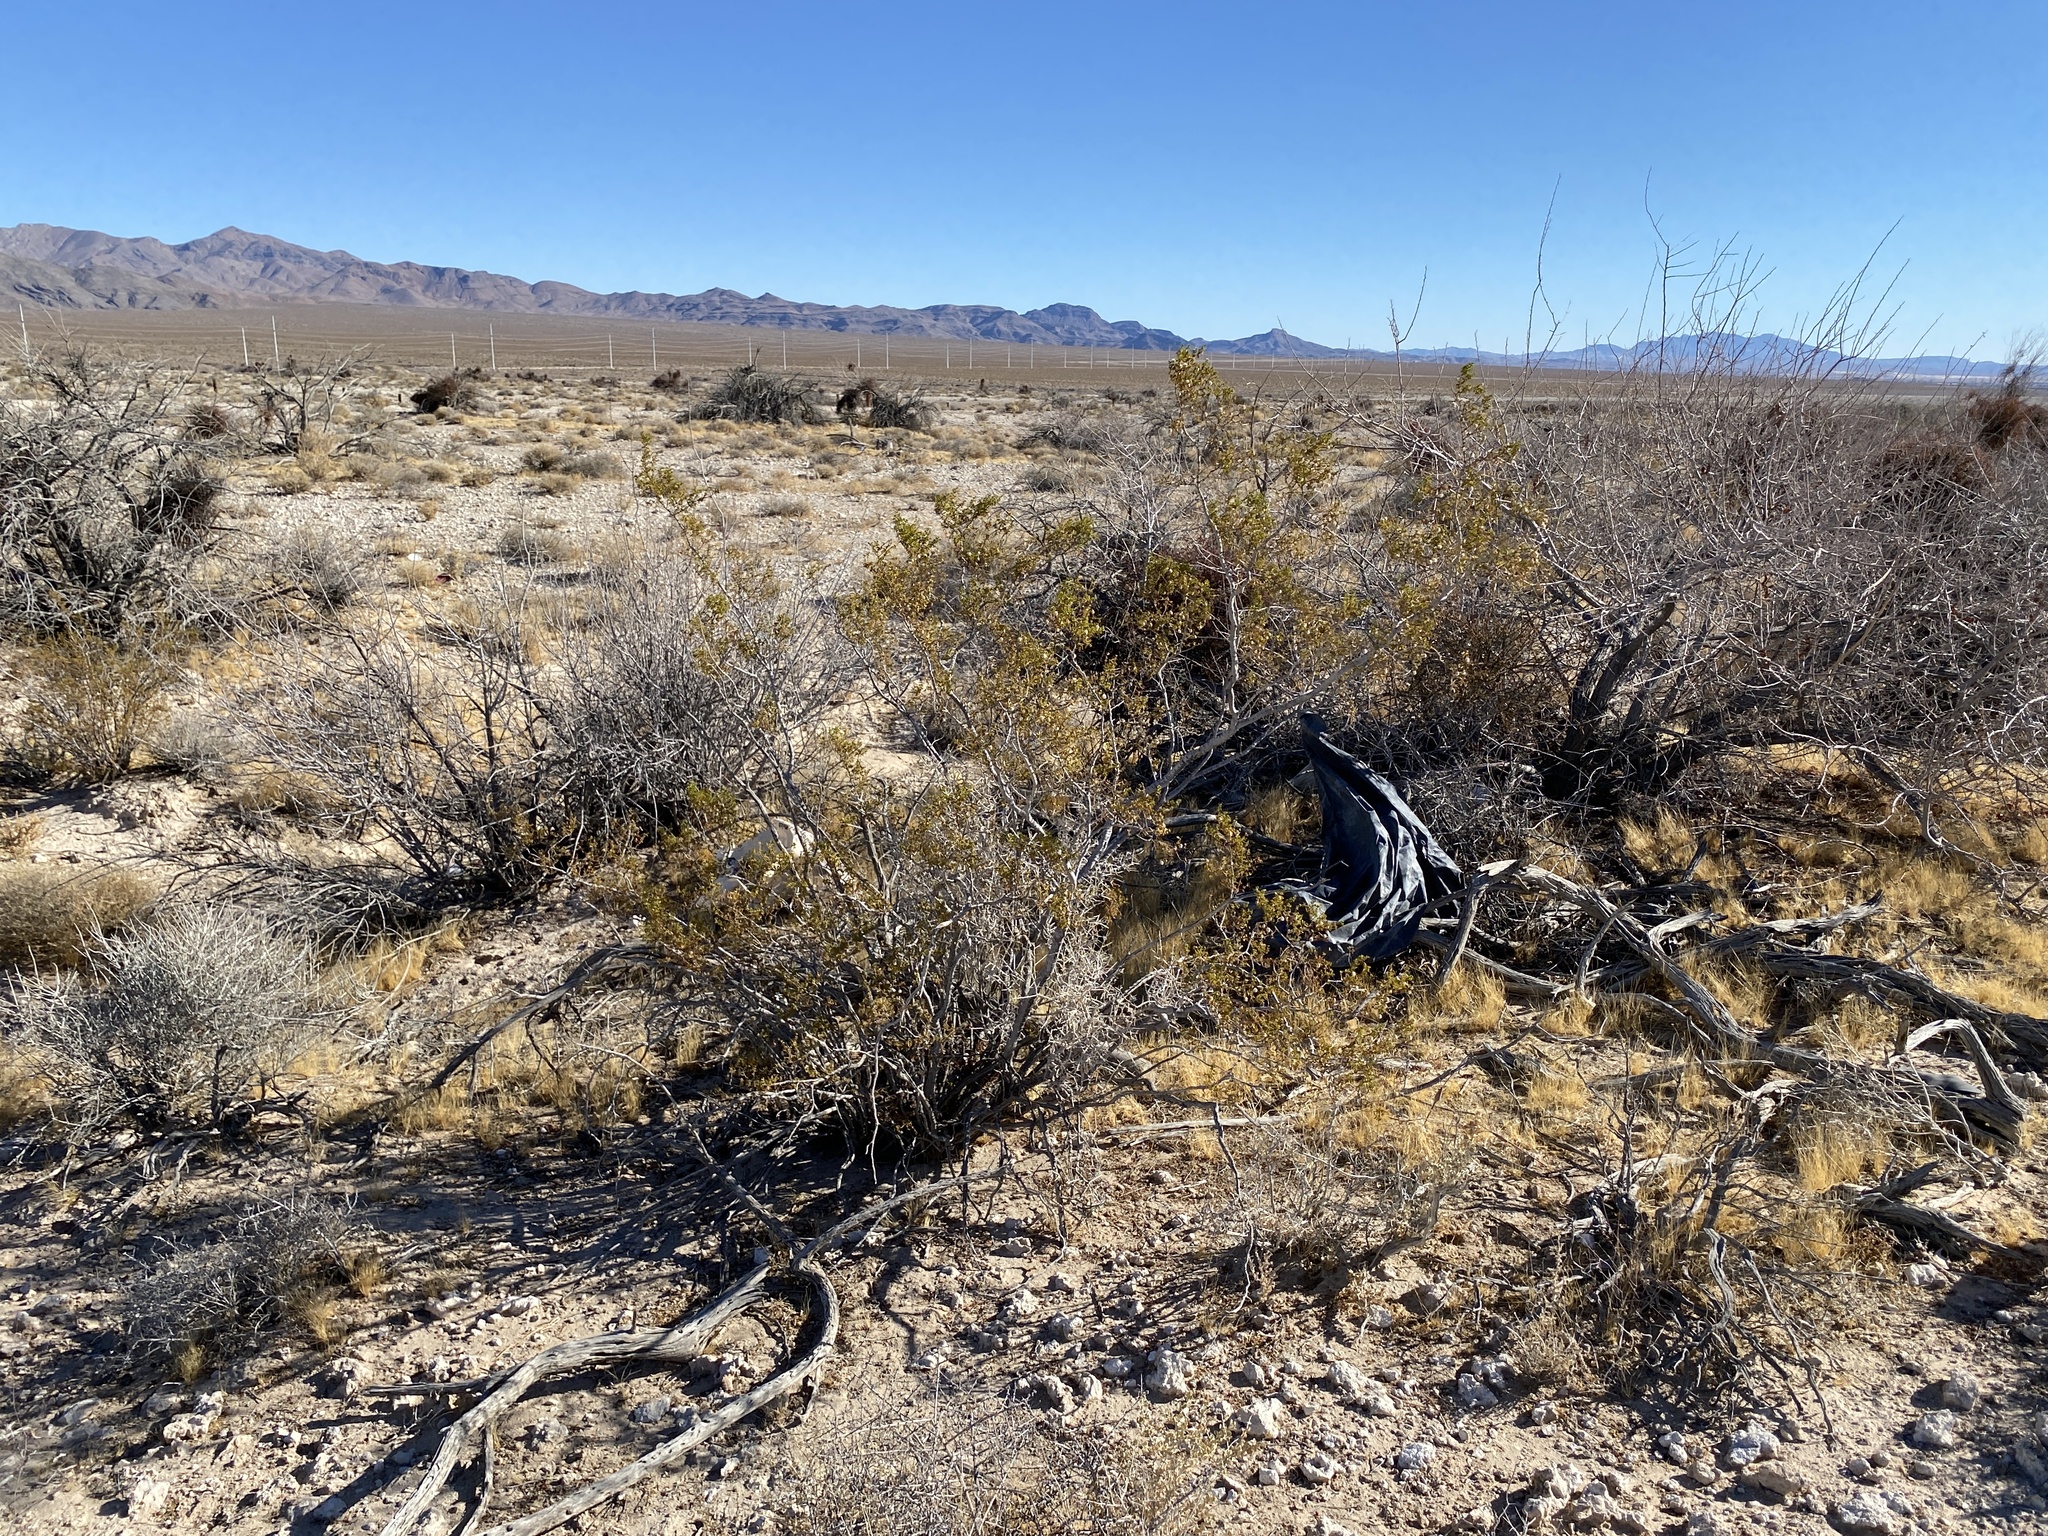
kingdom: Plantae
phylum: Tracheophyta
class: Magnoliopsida
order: Zygophyllales
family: Zygophyllaceae
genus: Larrea
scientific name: Larrea tridentata
